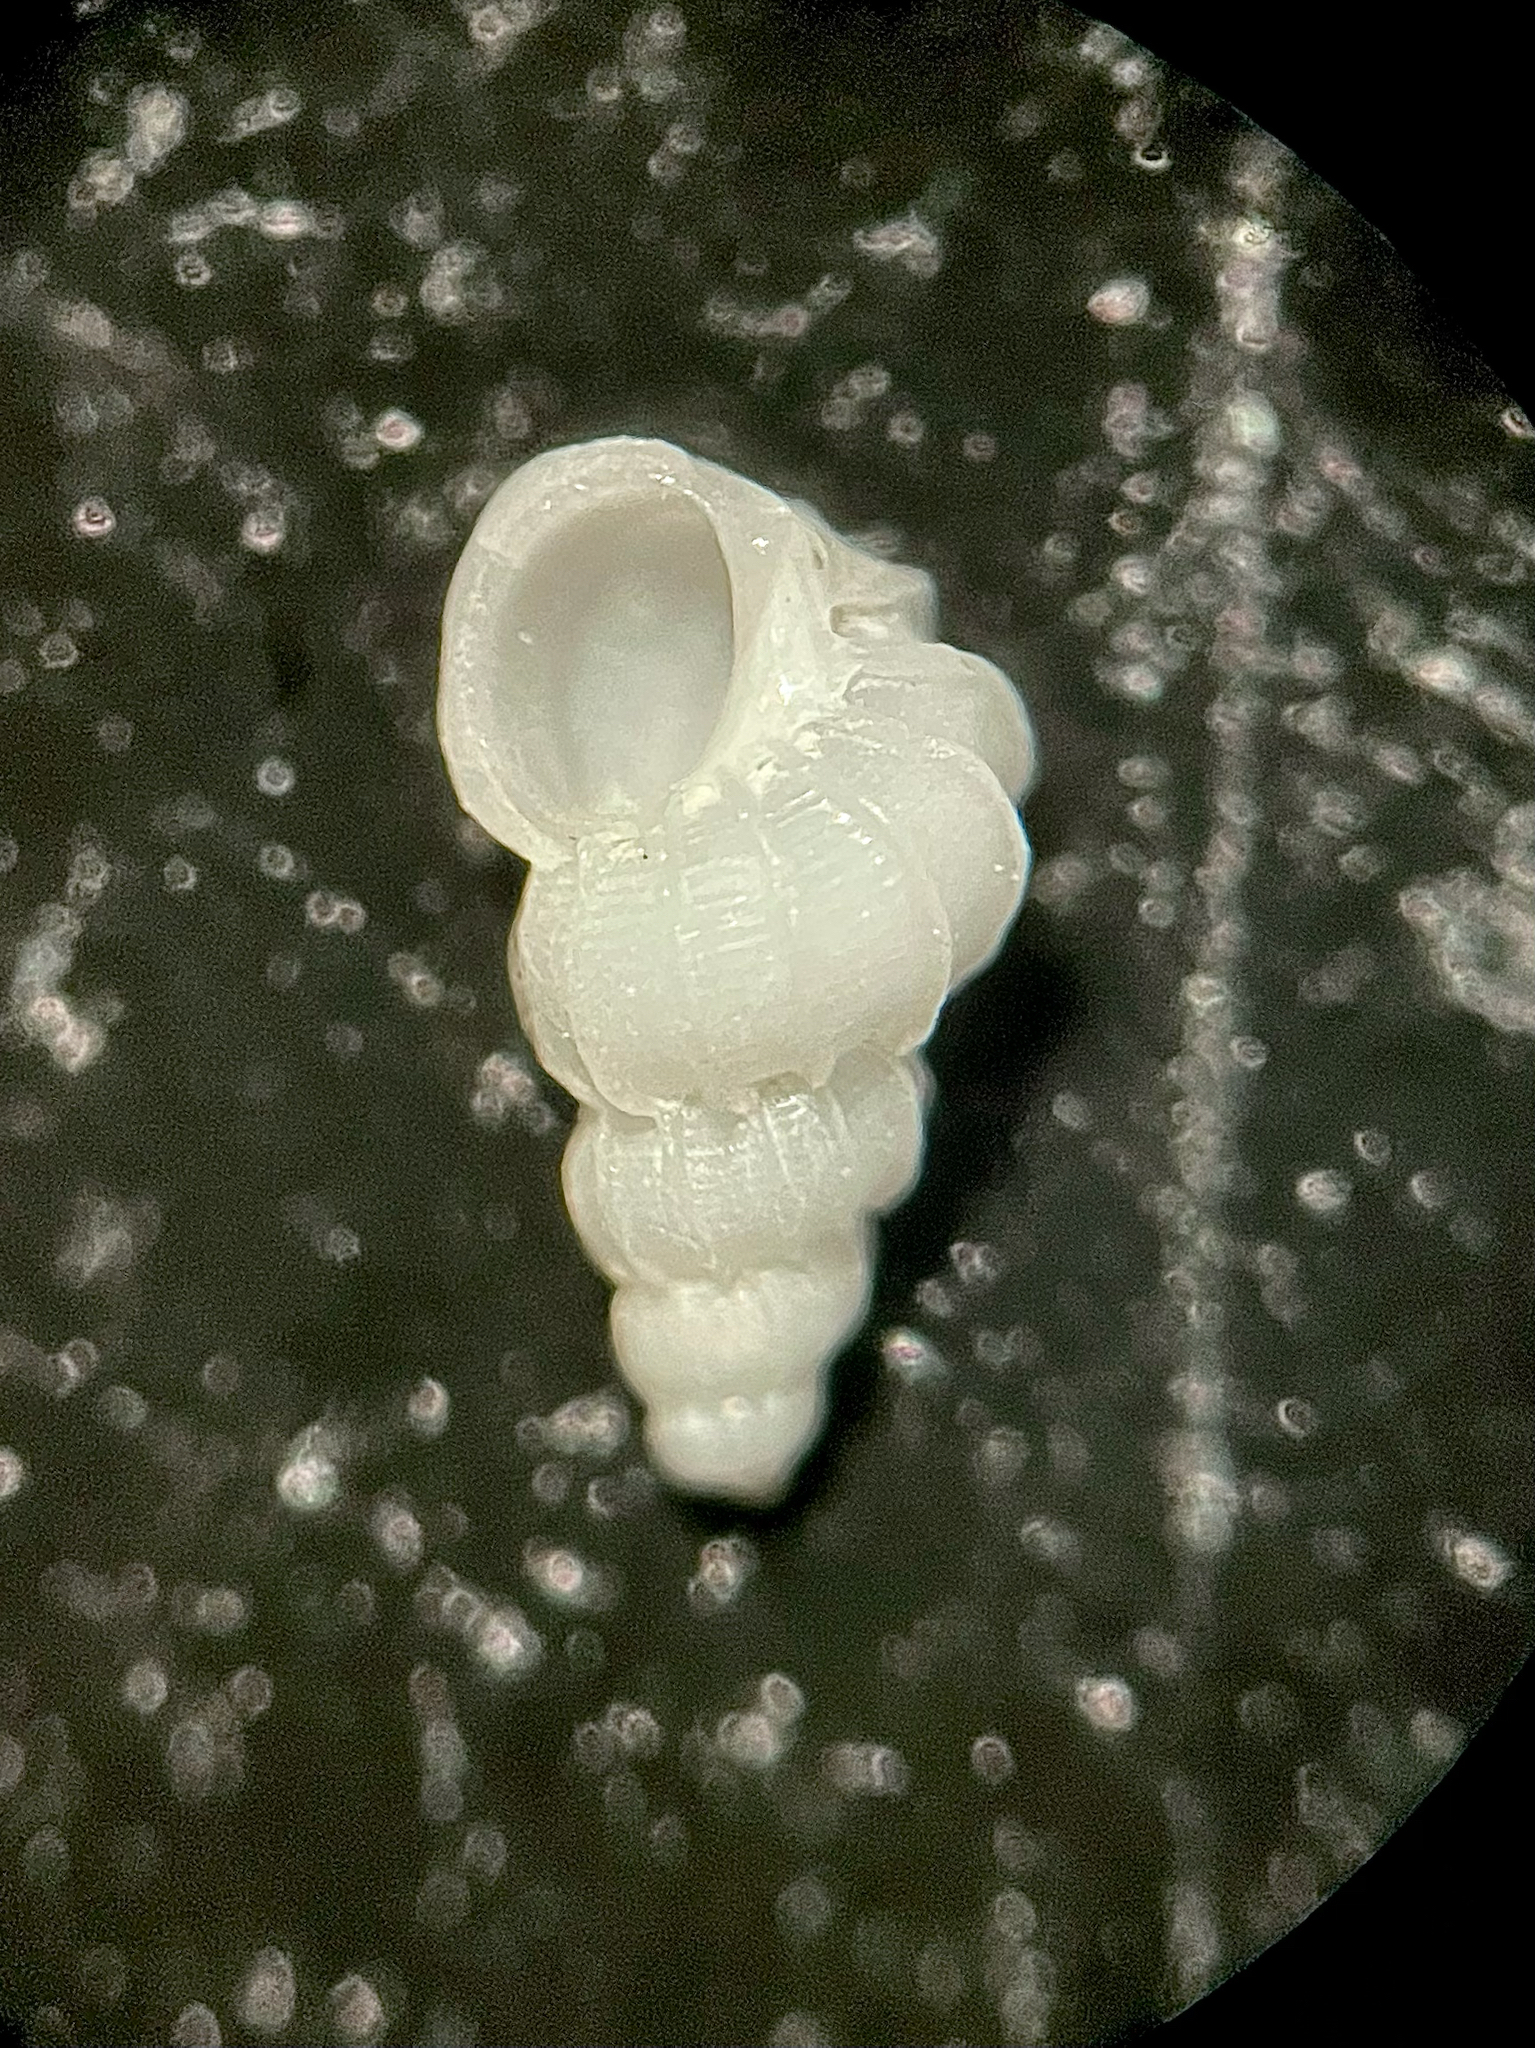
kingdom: Animalia
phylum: Mollusca
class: Gastropoda
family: Epitoniidae
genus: Epitonium
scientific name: Epitonium novangliae
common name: New england wentletrap
